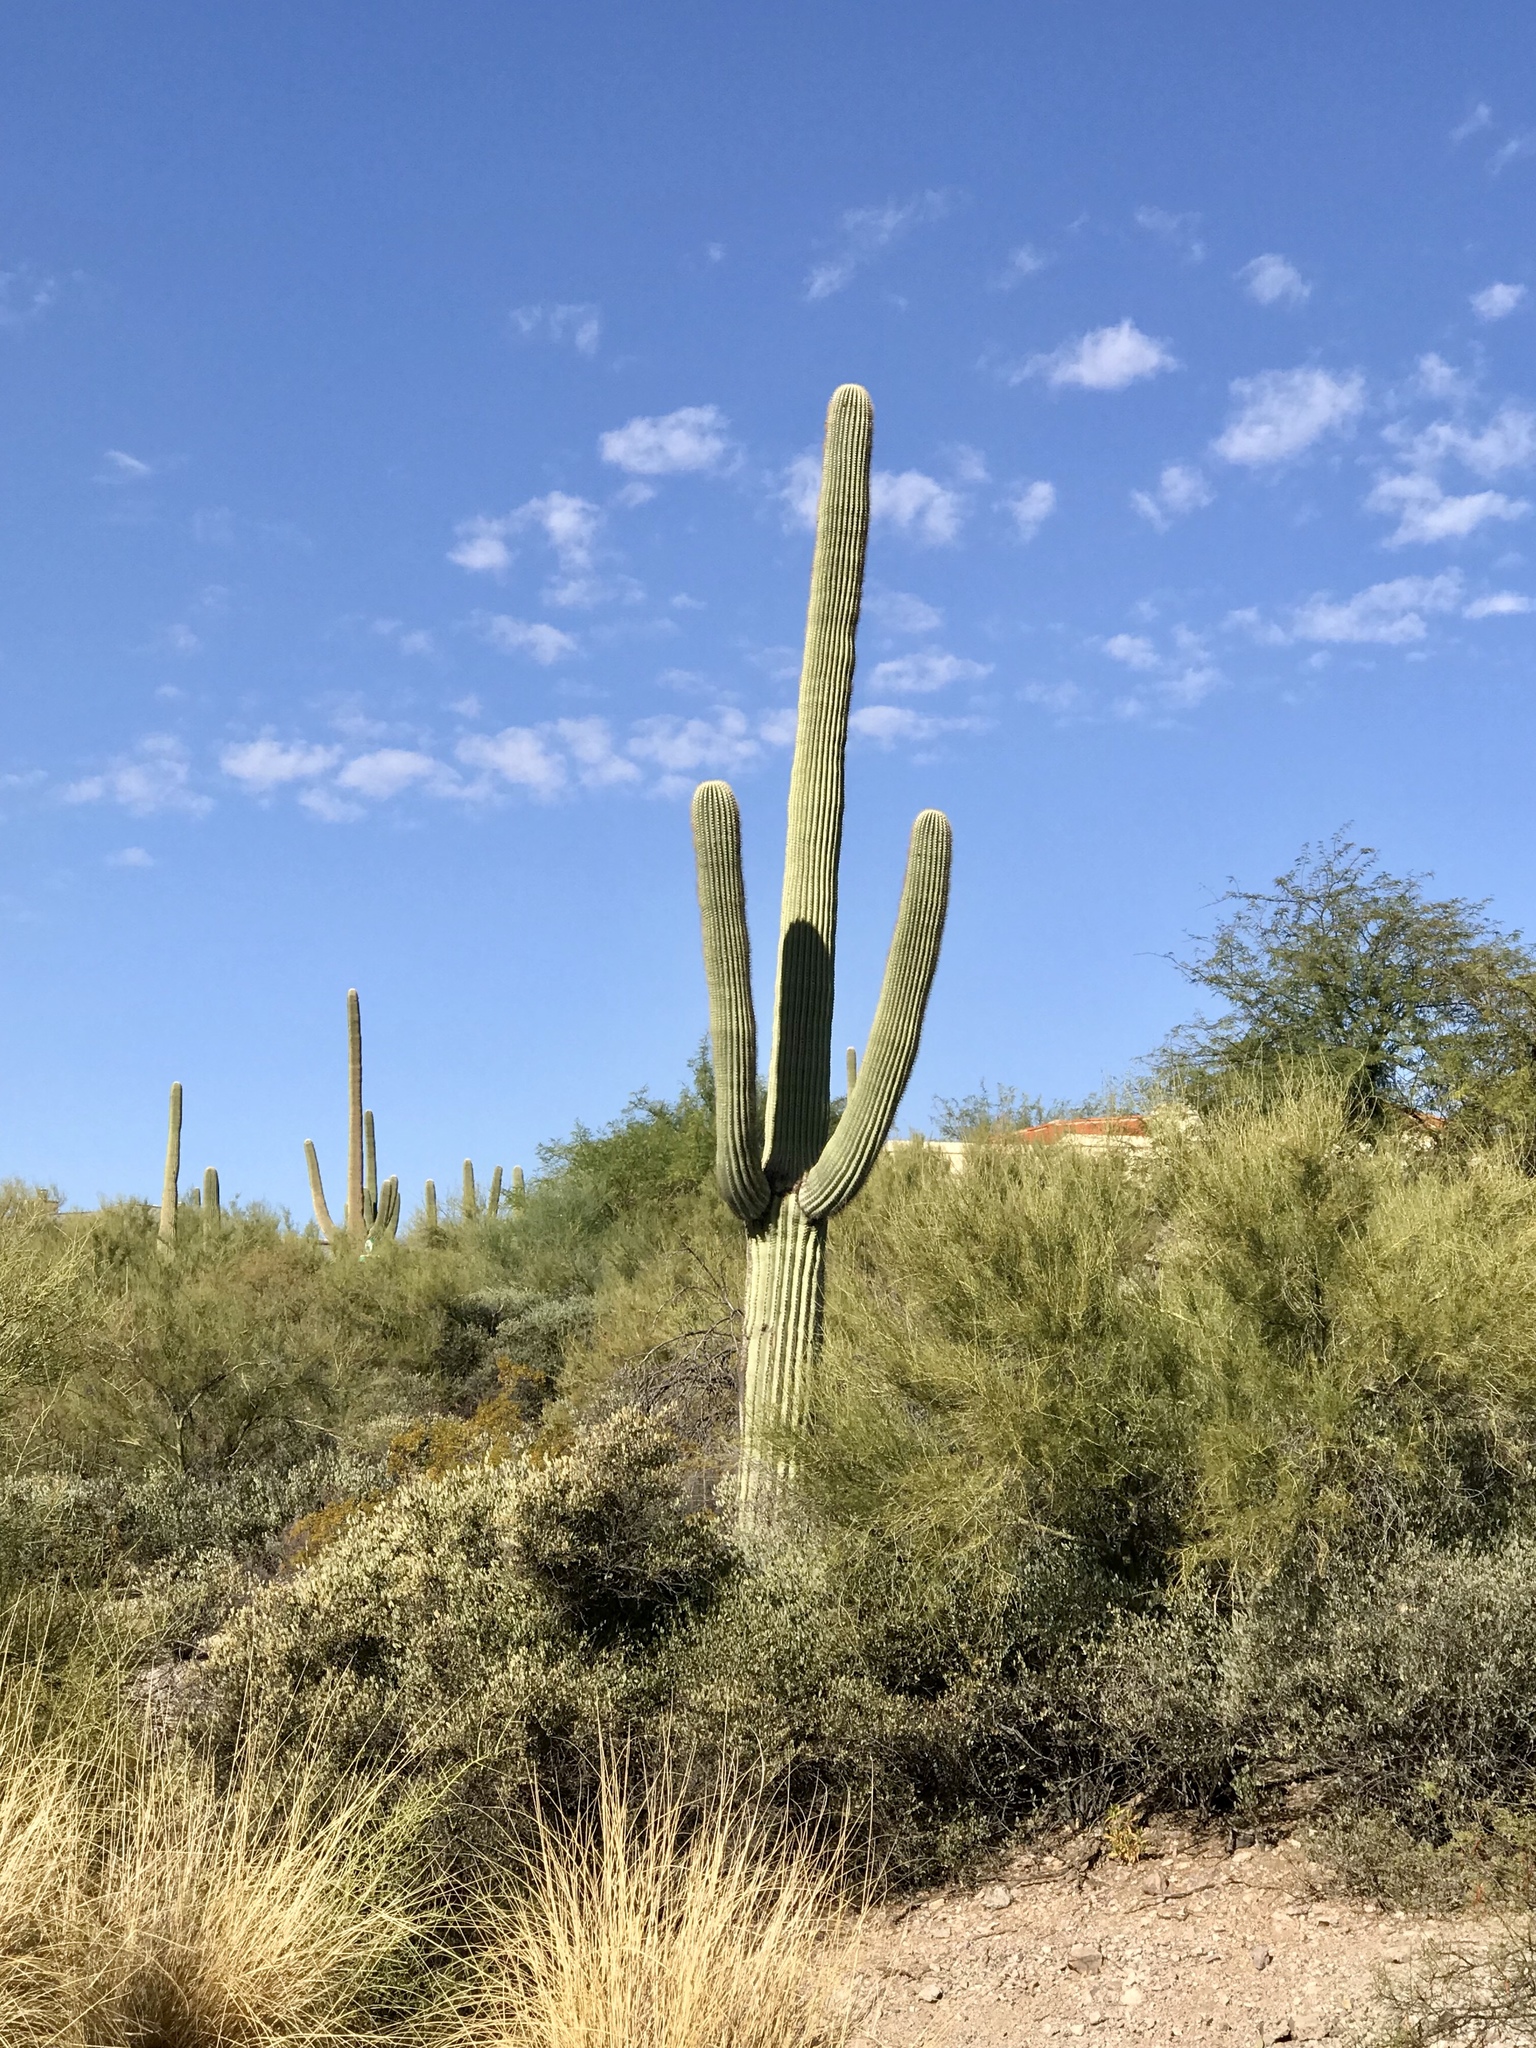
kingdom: Plantae
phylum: Tracheophyta
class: Magnoliopsida
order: Caryophyllales
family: Cactaceae
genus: Carnegiea
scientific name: Carnegiea gigantea
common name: Saguaro
